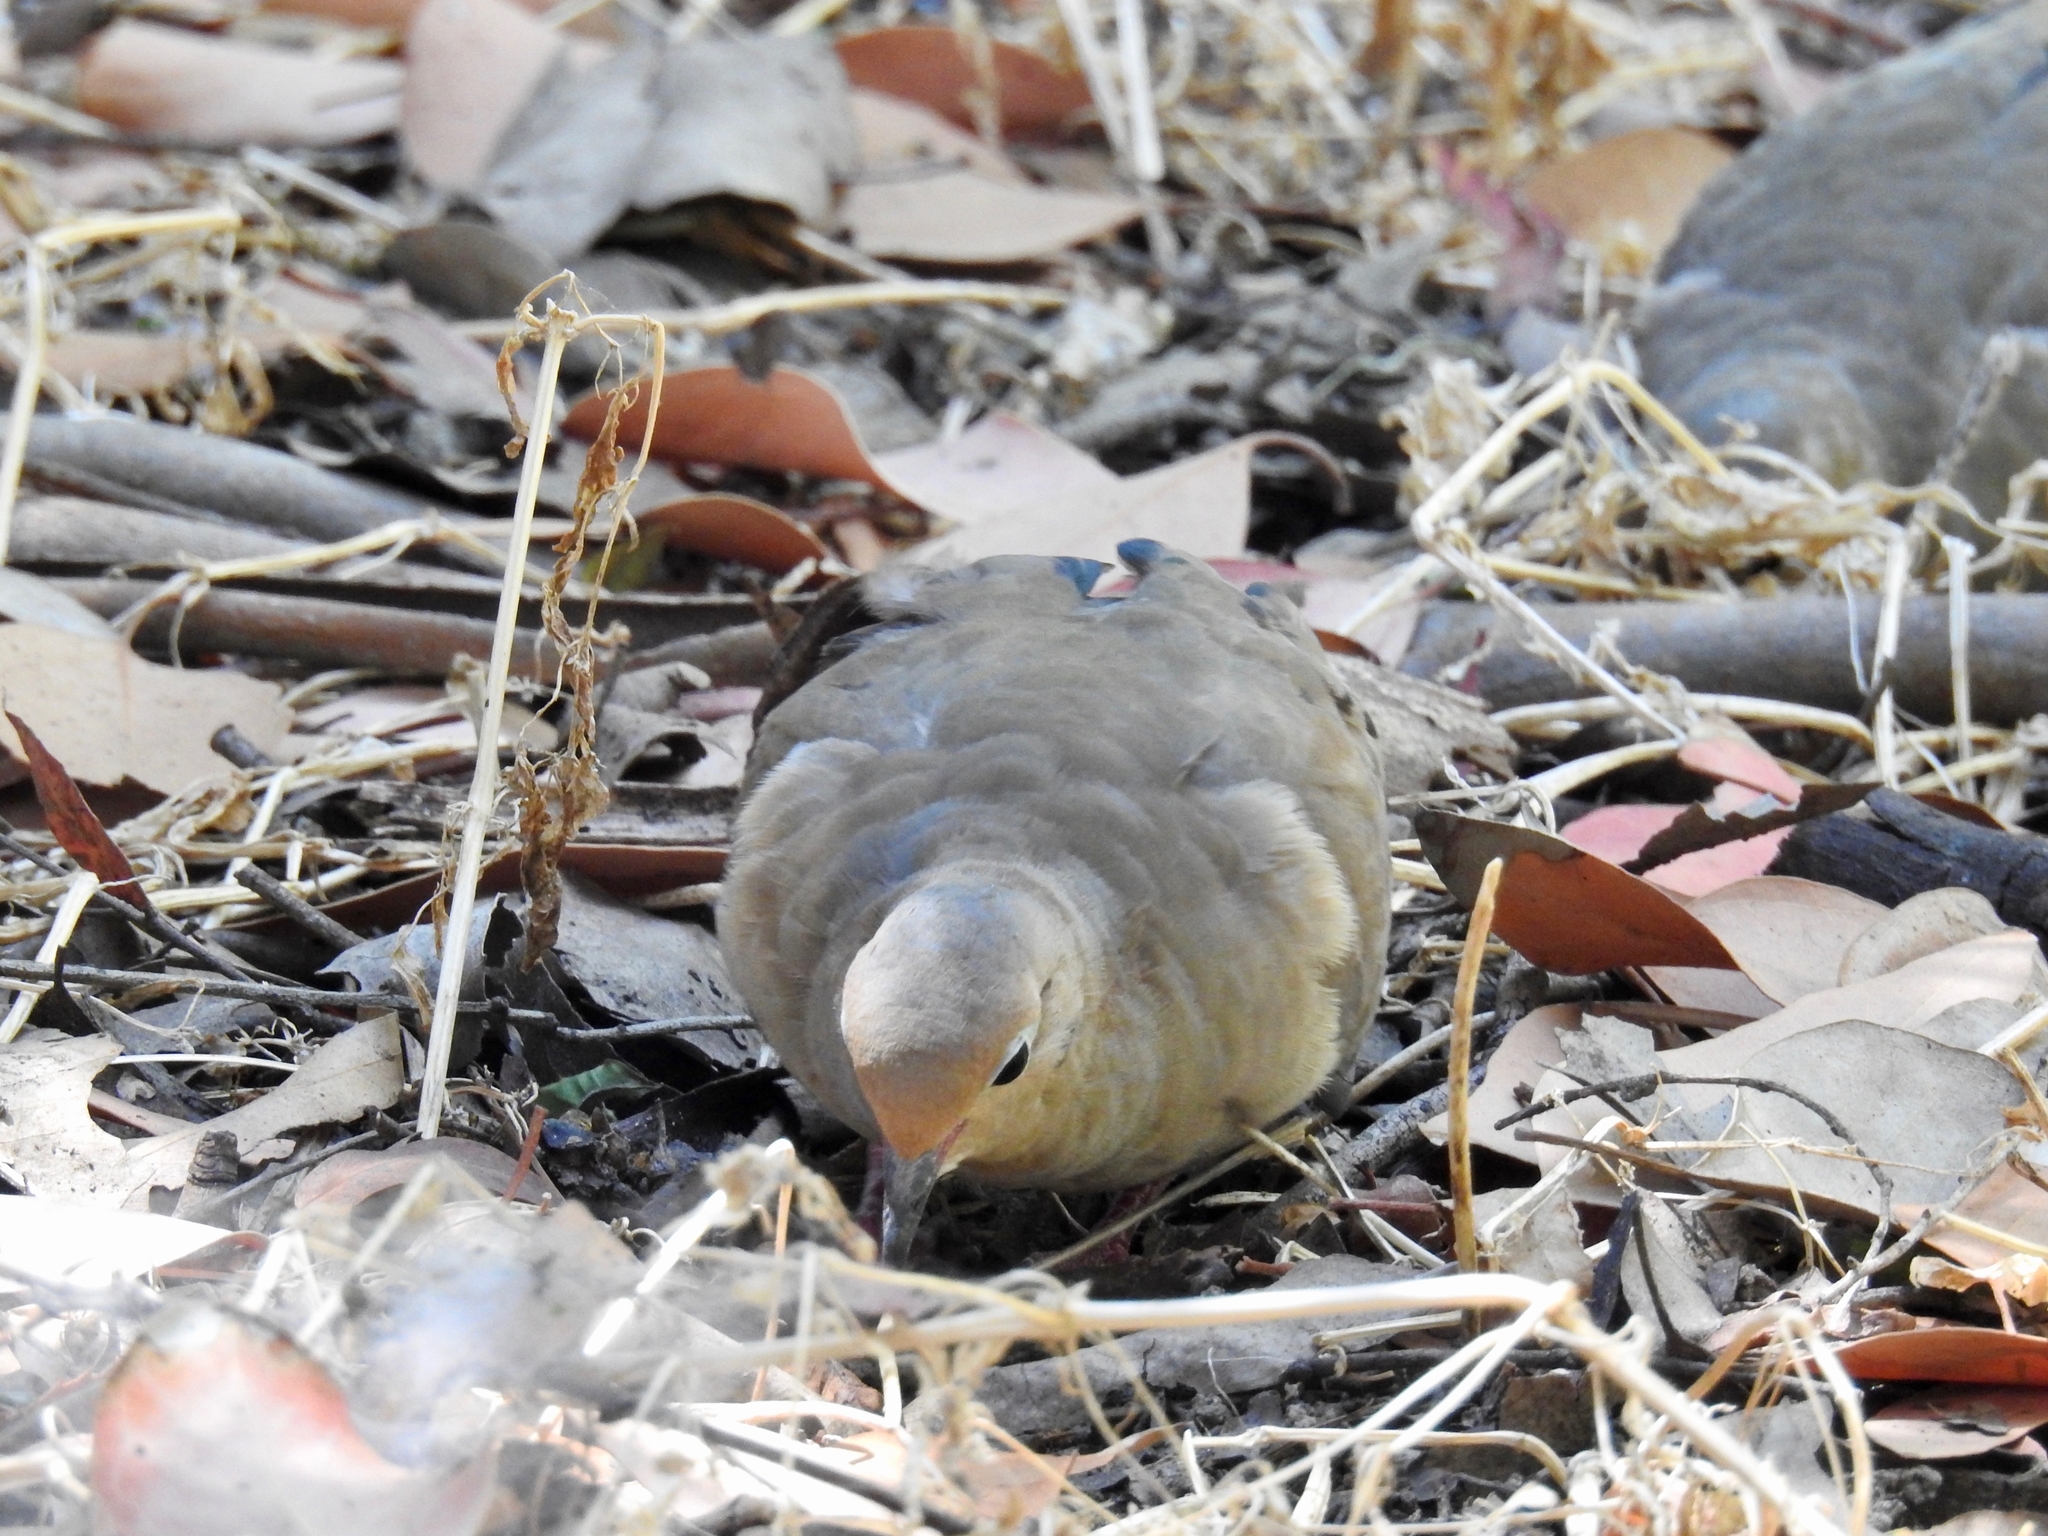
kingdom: Animalia
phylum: Chordata
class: Aves
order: Columbiformes
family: Columbidae
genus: Zenaida
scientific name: Zenaida macroura
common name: Mourning dove
